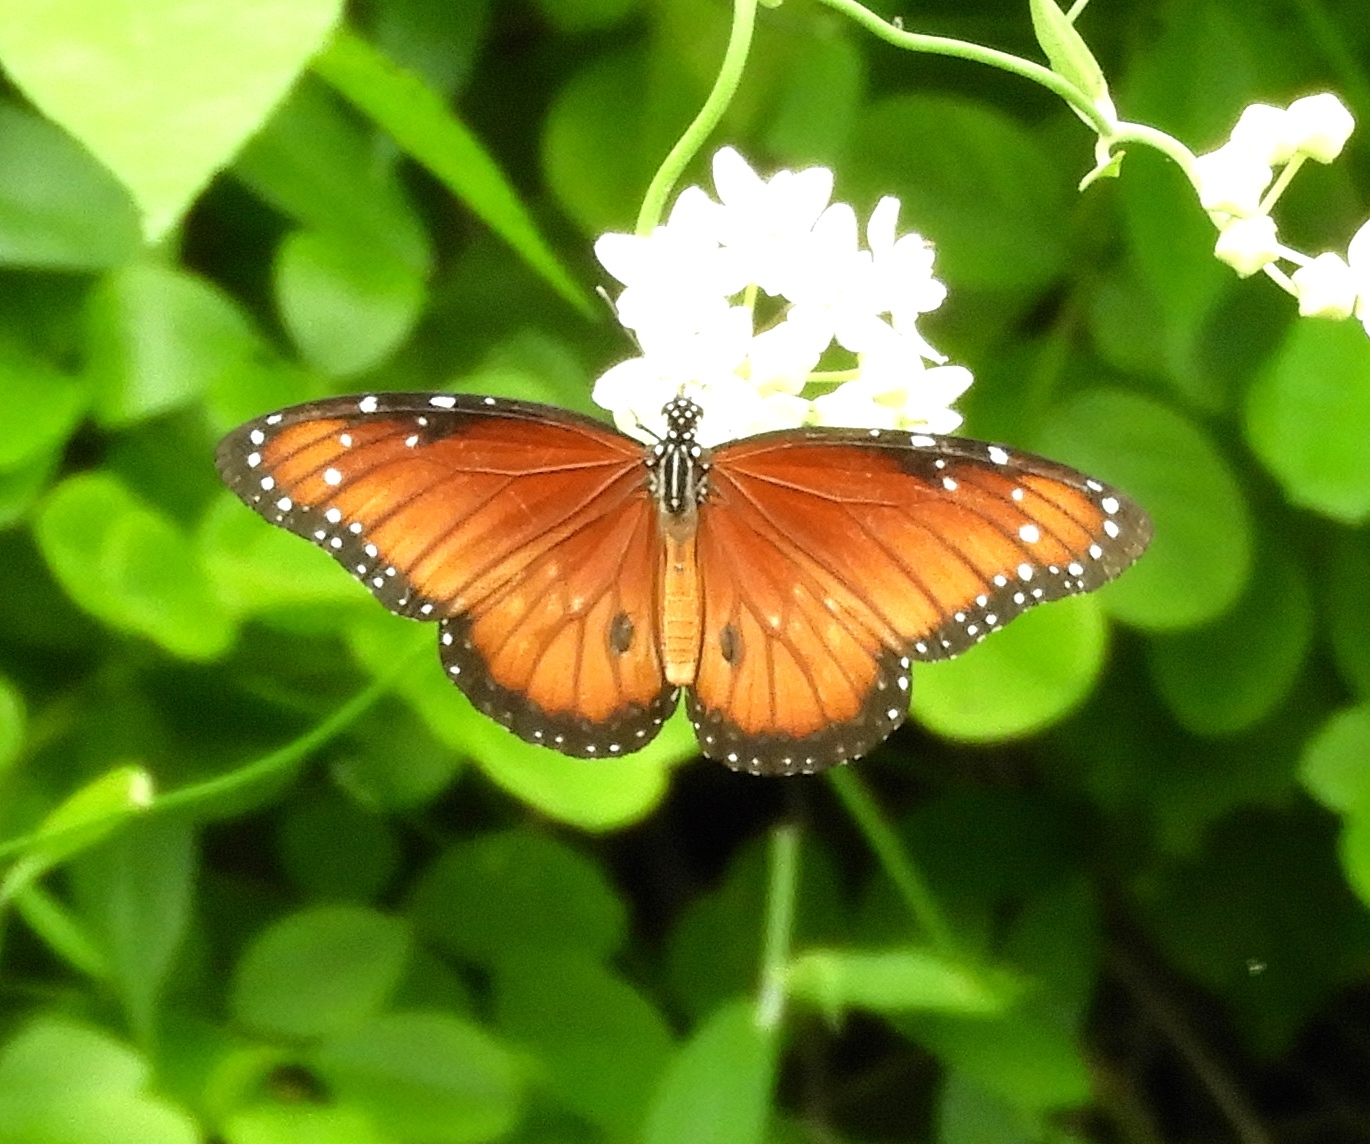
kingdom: Animalia
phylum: Arthropoda
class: Insecta
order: Lepidoptera
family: Nymphalidae
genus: Danaus
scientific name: Danaus eresimus
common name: Soldier
